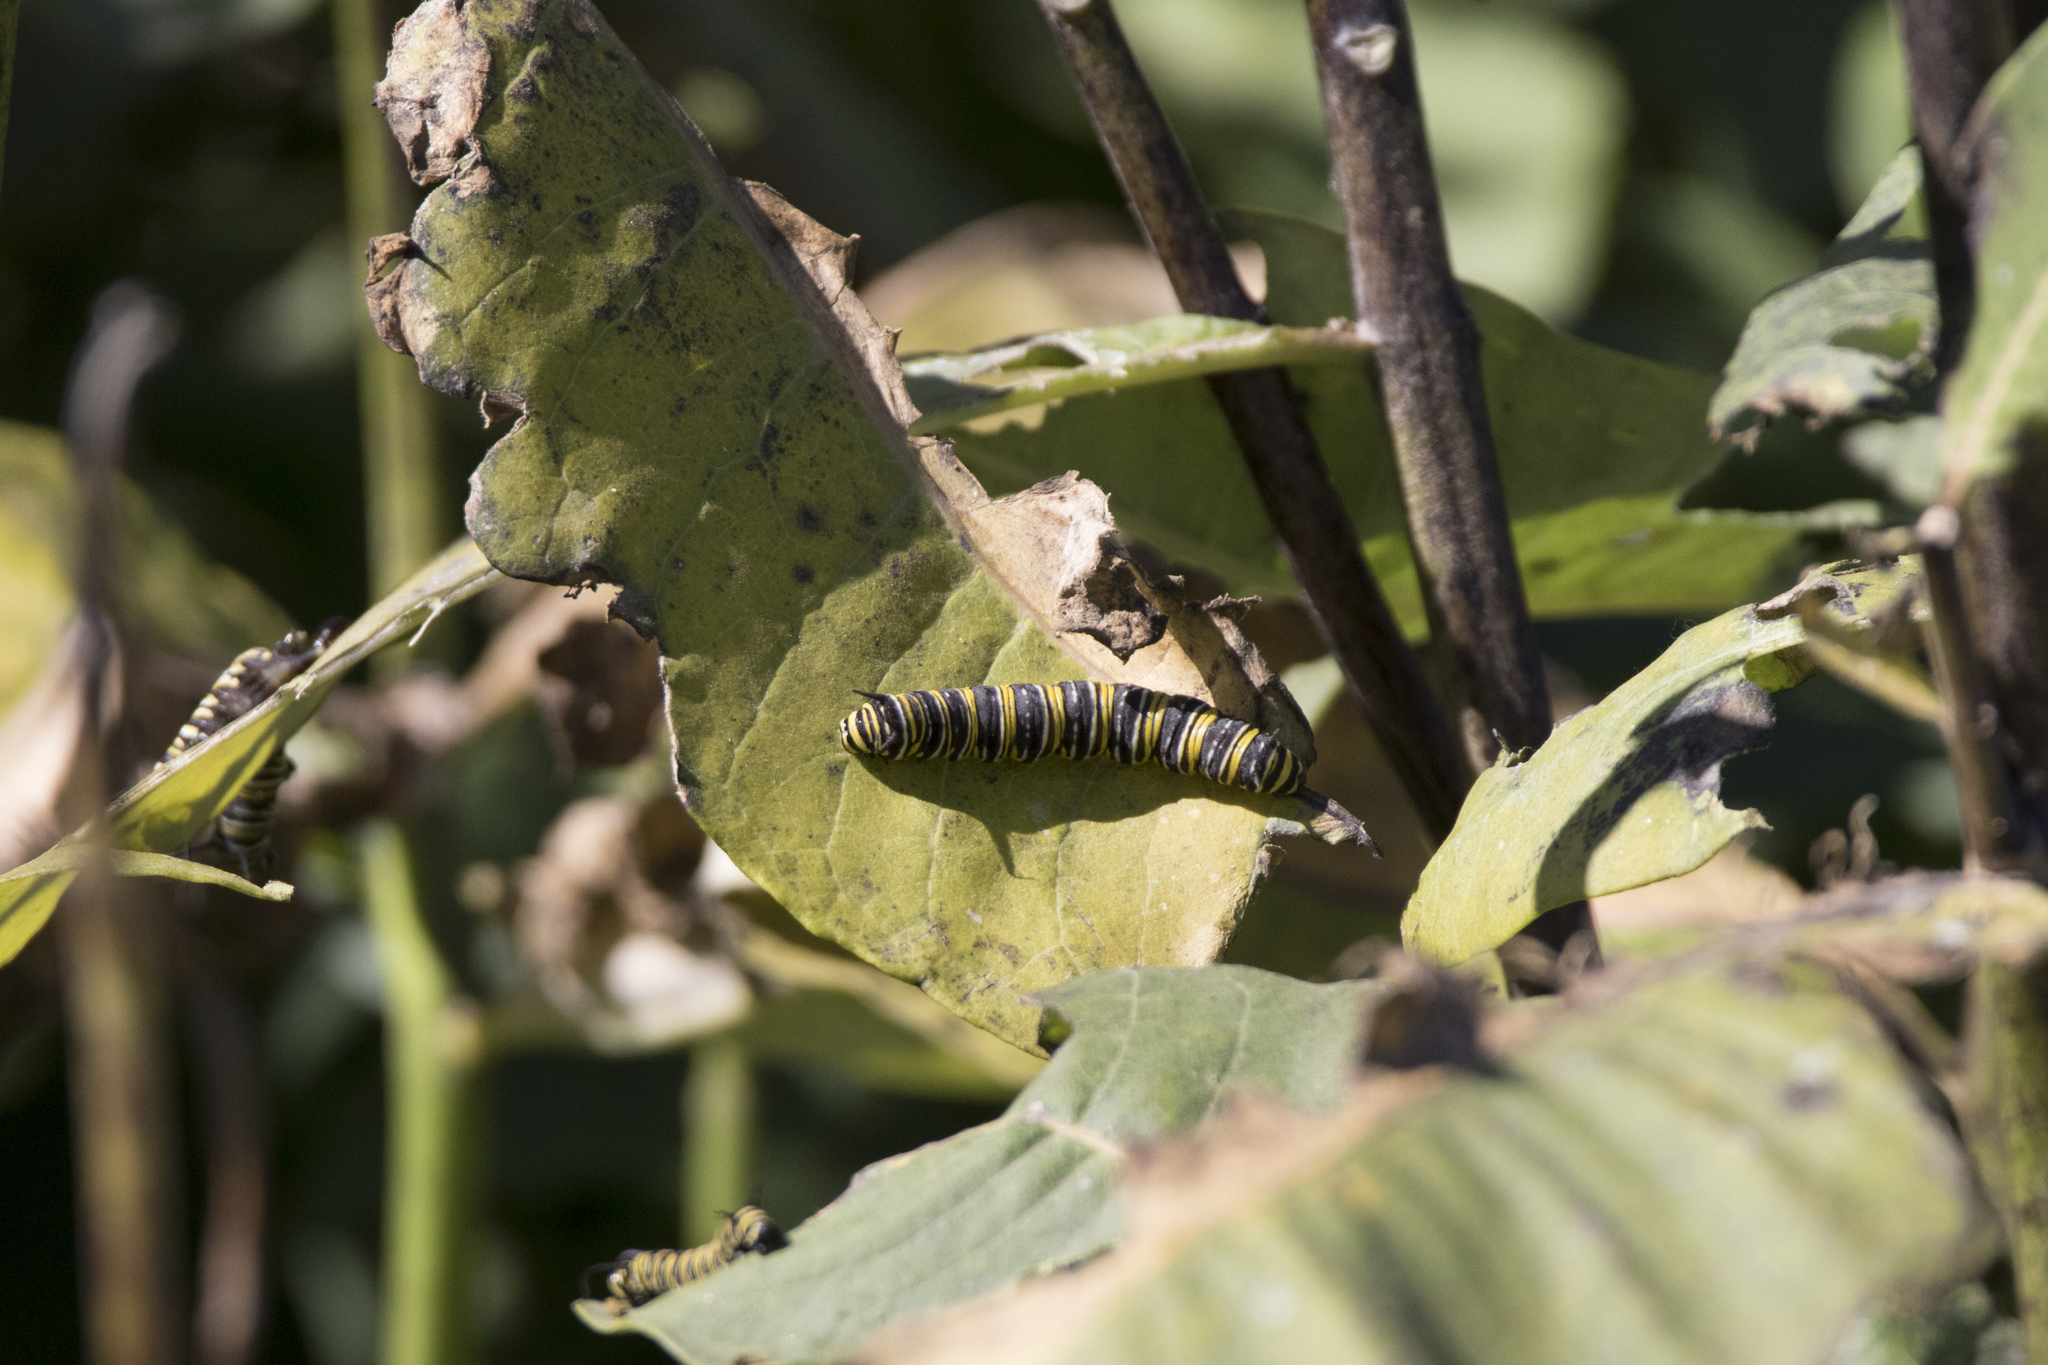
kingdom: Animalia
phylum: Arthropoda
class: Insecta
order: Lepidoptera
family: Nymphalidae
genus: Danaus
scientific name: Danaus plexippus
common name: Monarch
